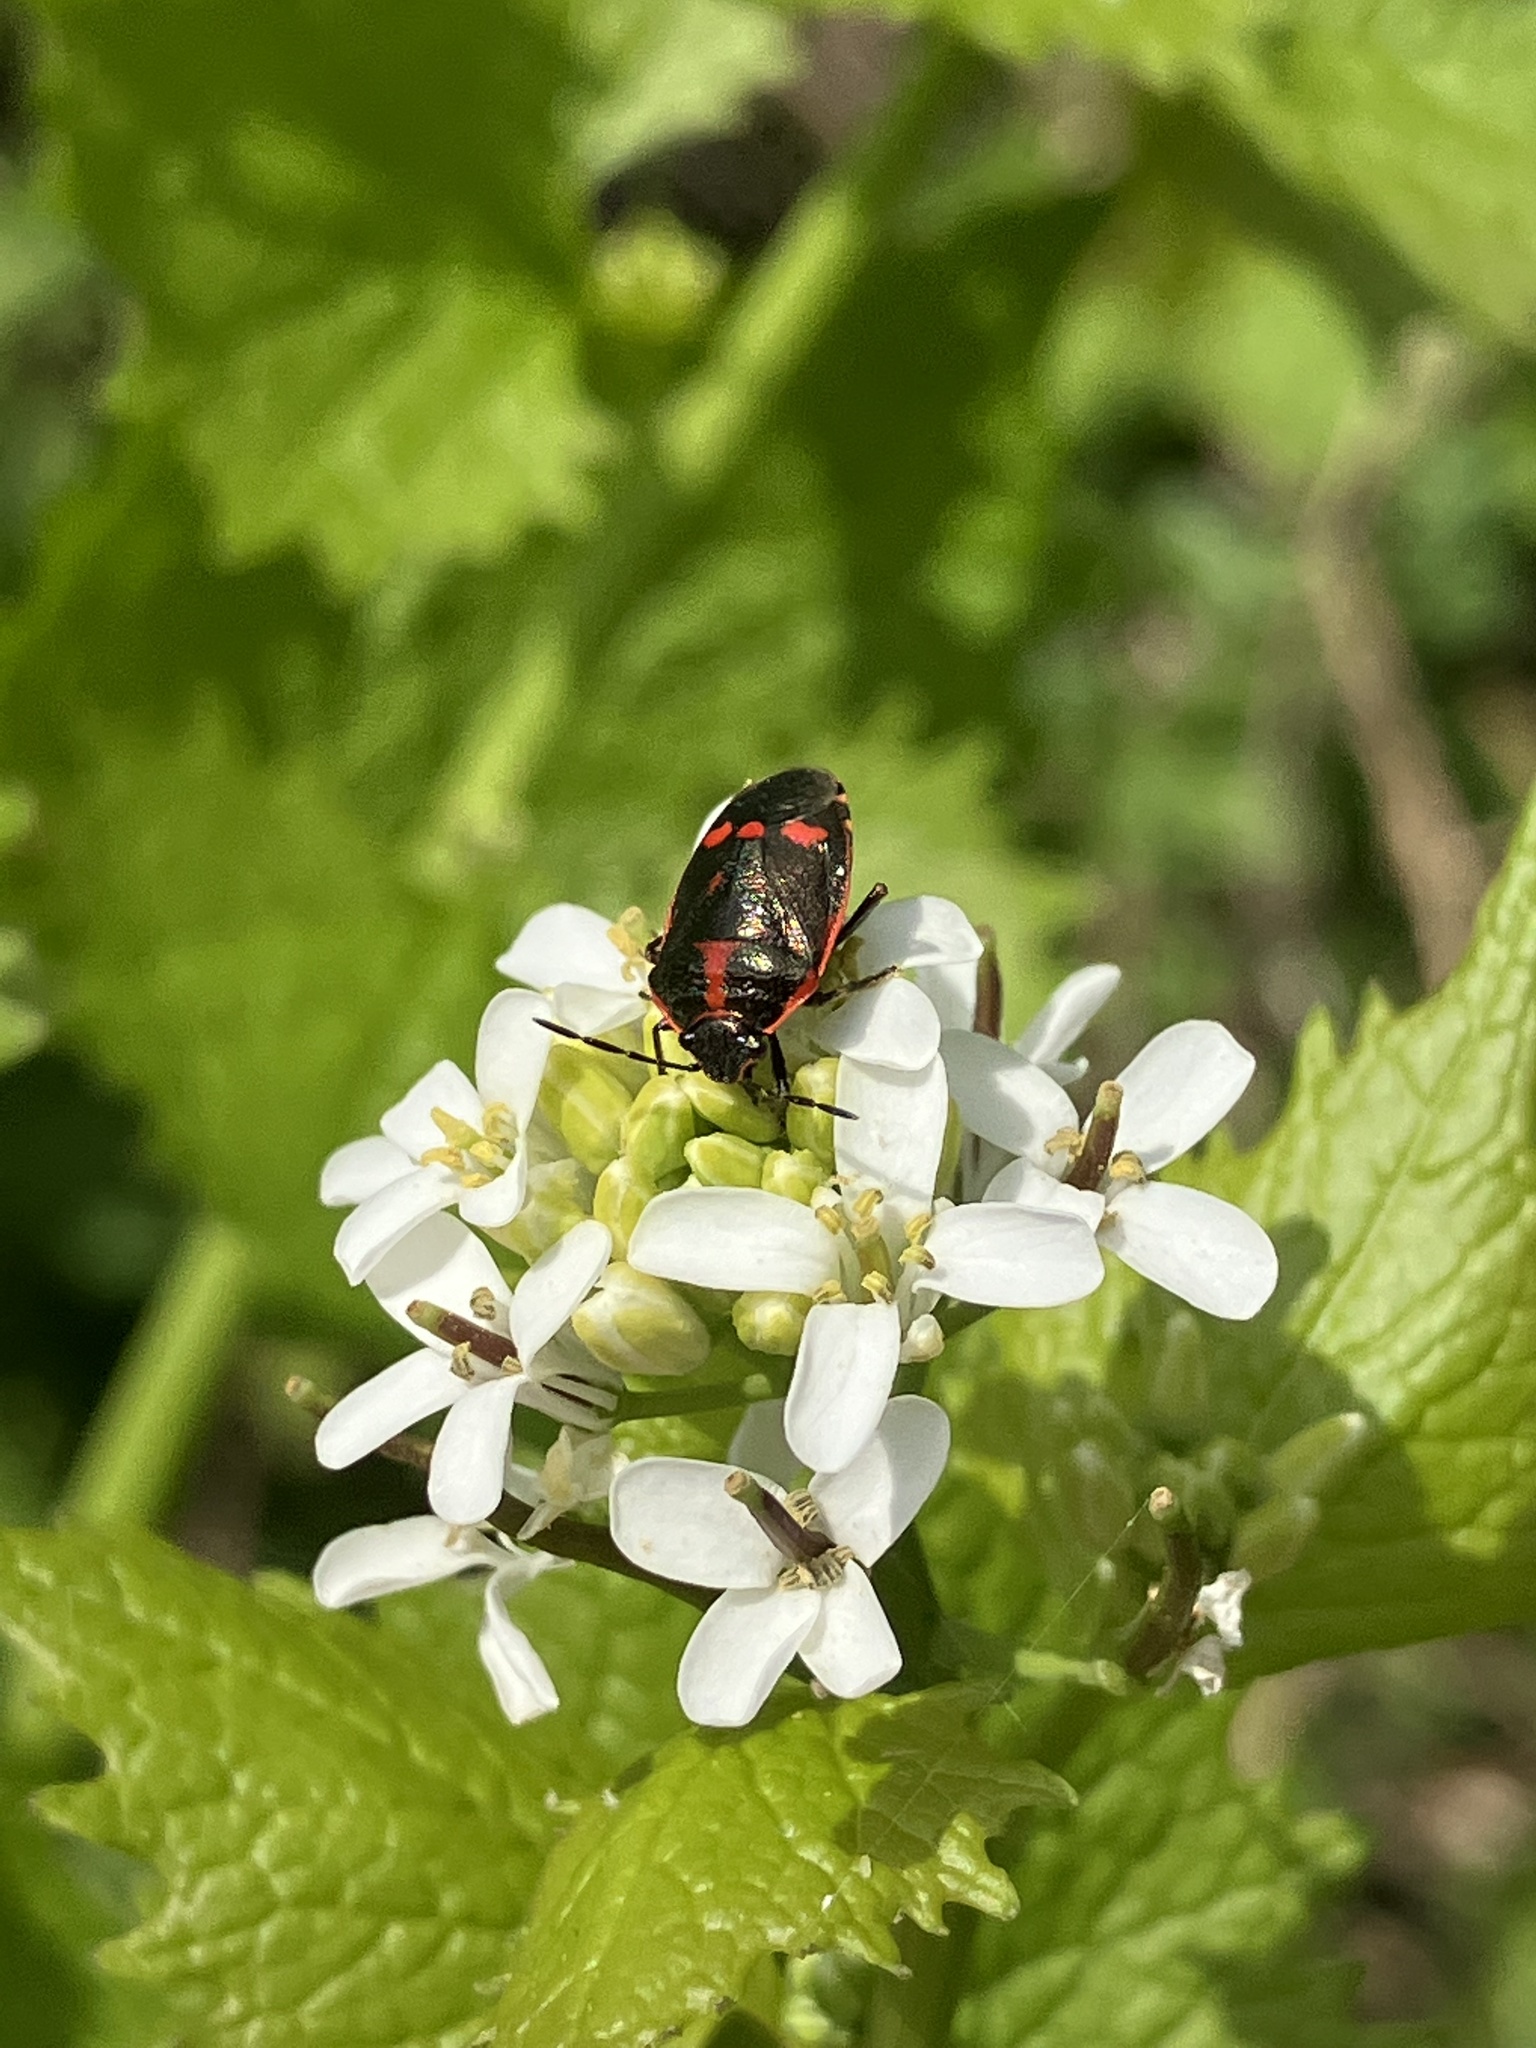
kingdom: Animalia
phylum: Arthropoda
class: Insecta
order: Hemiptera
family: Pentatomidae
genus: Eurydema
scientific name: Eurydema oleracea
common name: Cabbage bug
